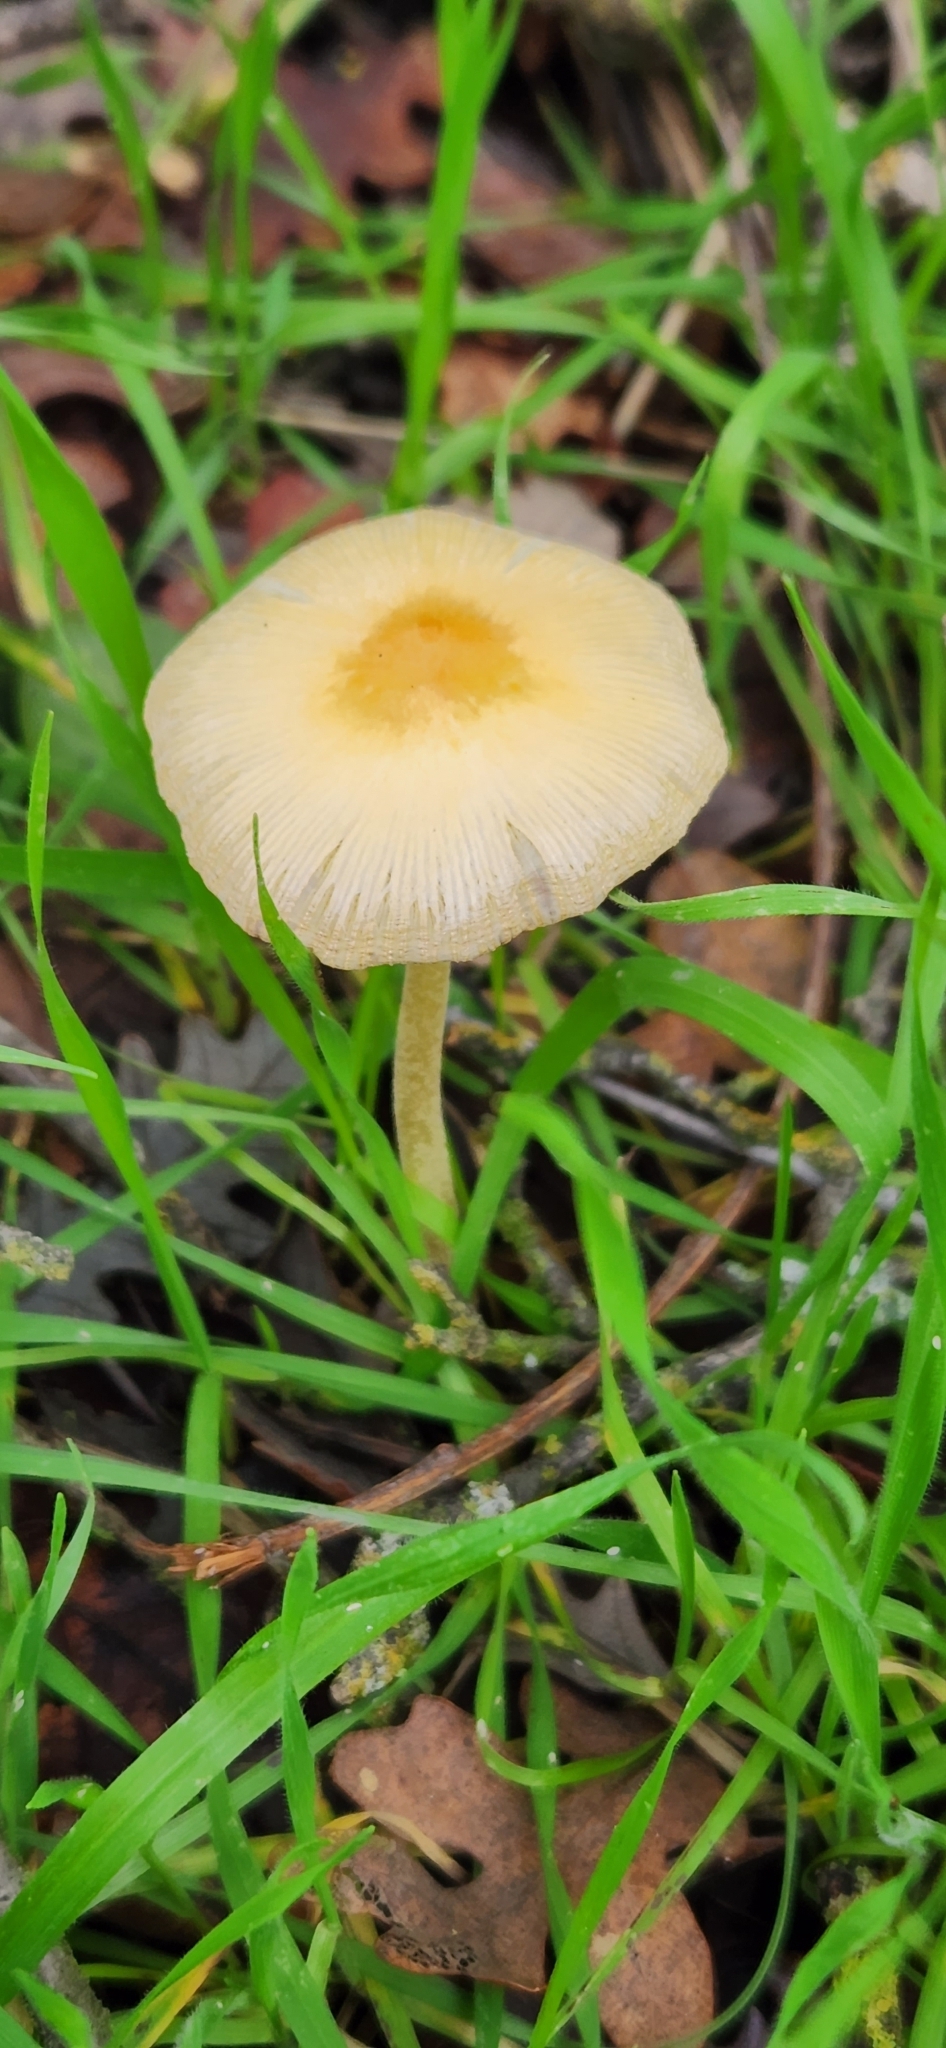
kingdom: Fungi
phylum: Basidiomycota
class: Agaricomycetes
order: Agaricales
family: Bolbitiaceae
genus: Bolbitius
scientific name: Bolbitius titubans
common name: Yellow fieldcap
